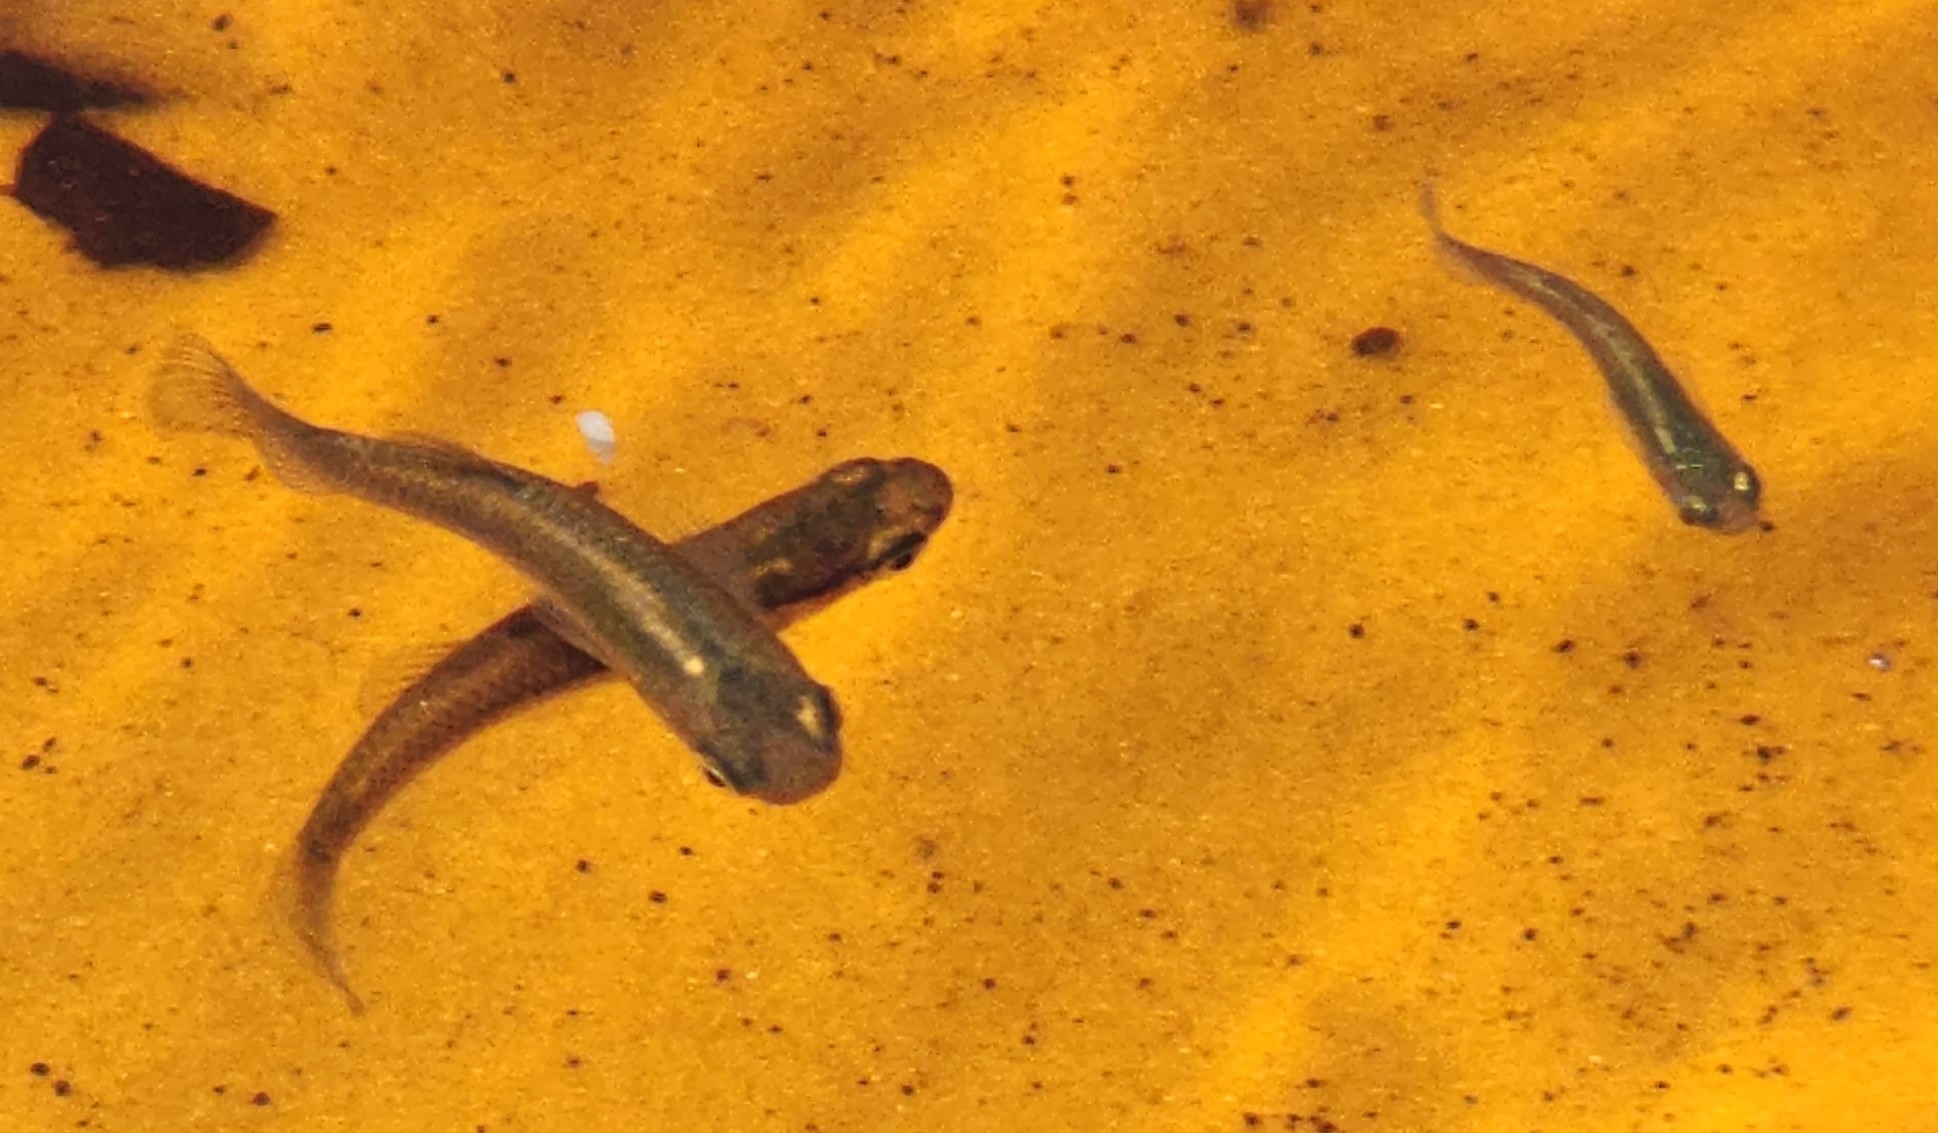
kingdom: Animalia
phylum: Chordata
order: Cyprinodontiformes
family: Poeciliidae
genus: Gambusia
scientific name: Gambusia holbrooki
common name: Eastern mosquitofish
